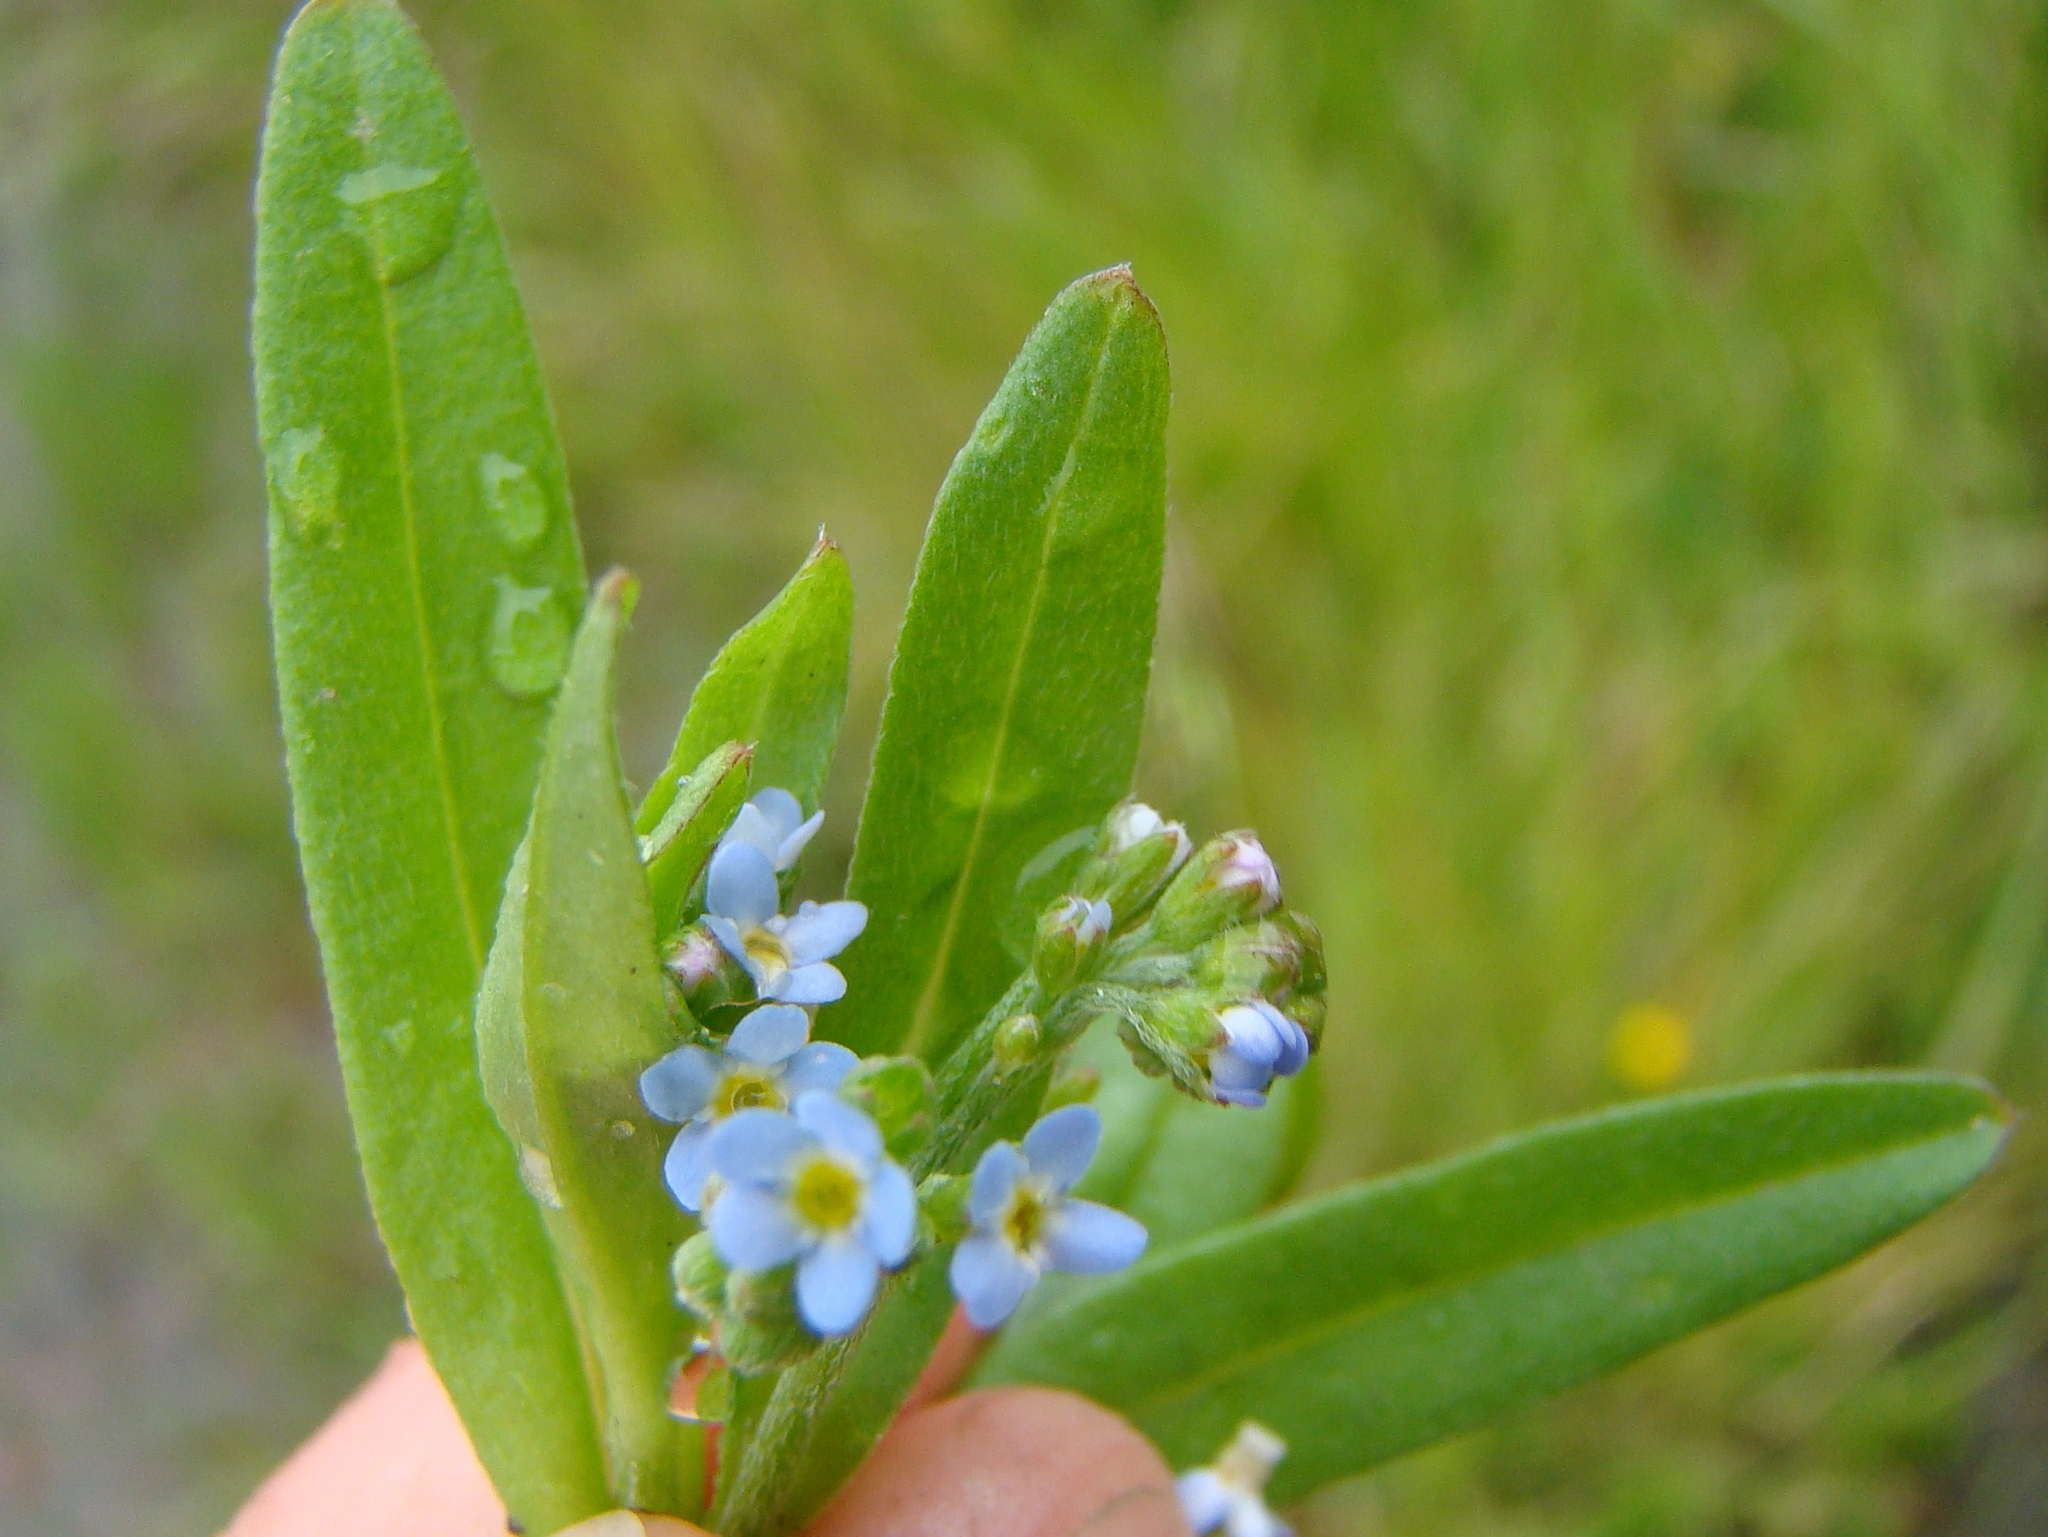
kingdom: Plantae
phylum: Tracheophyta
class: Magnoliopsida
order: Boraginales
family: Boraginaceae
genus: Myosotis
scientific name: Myosotis laxa
